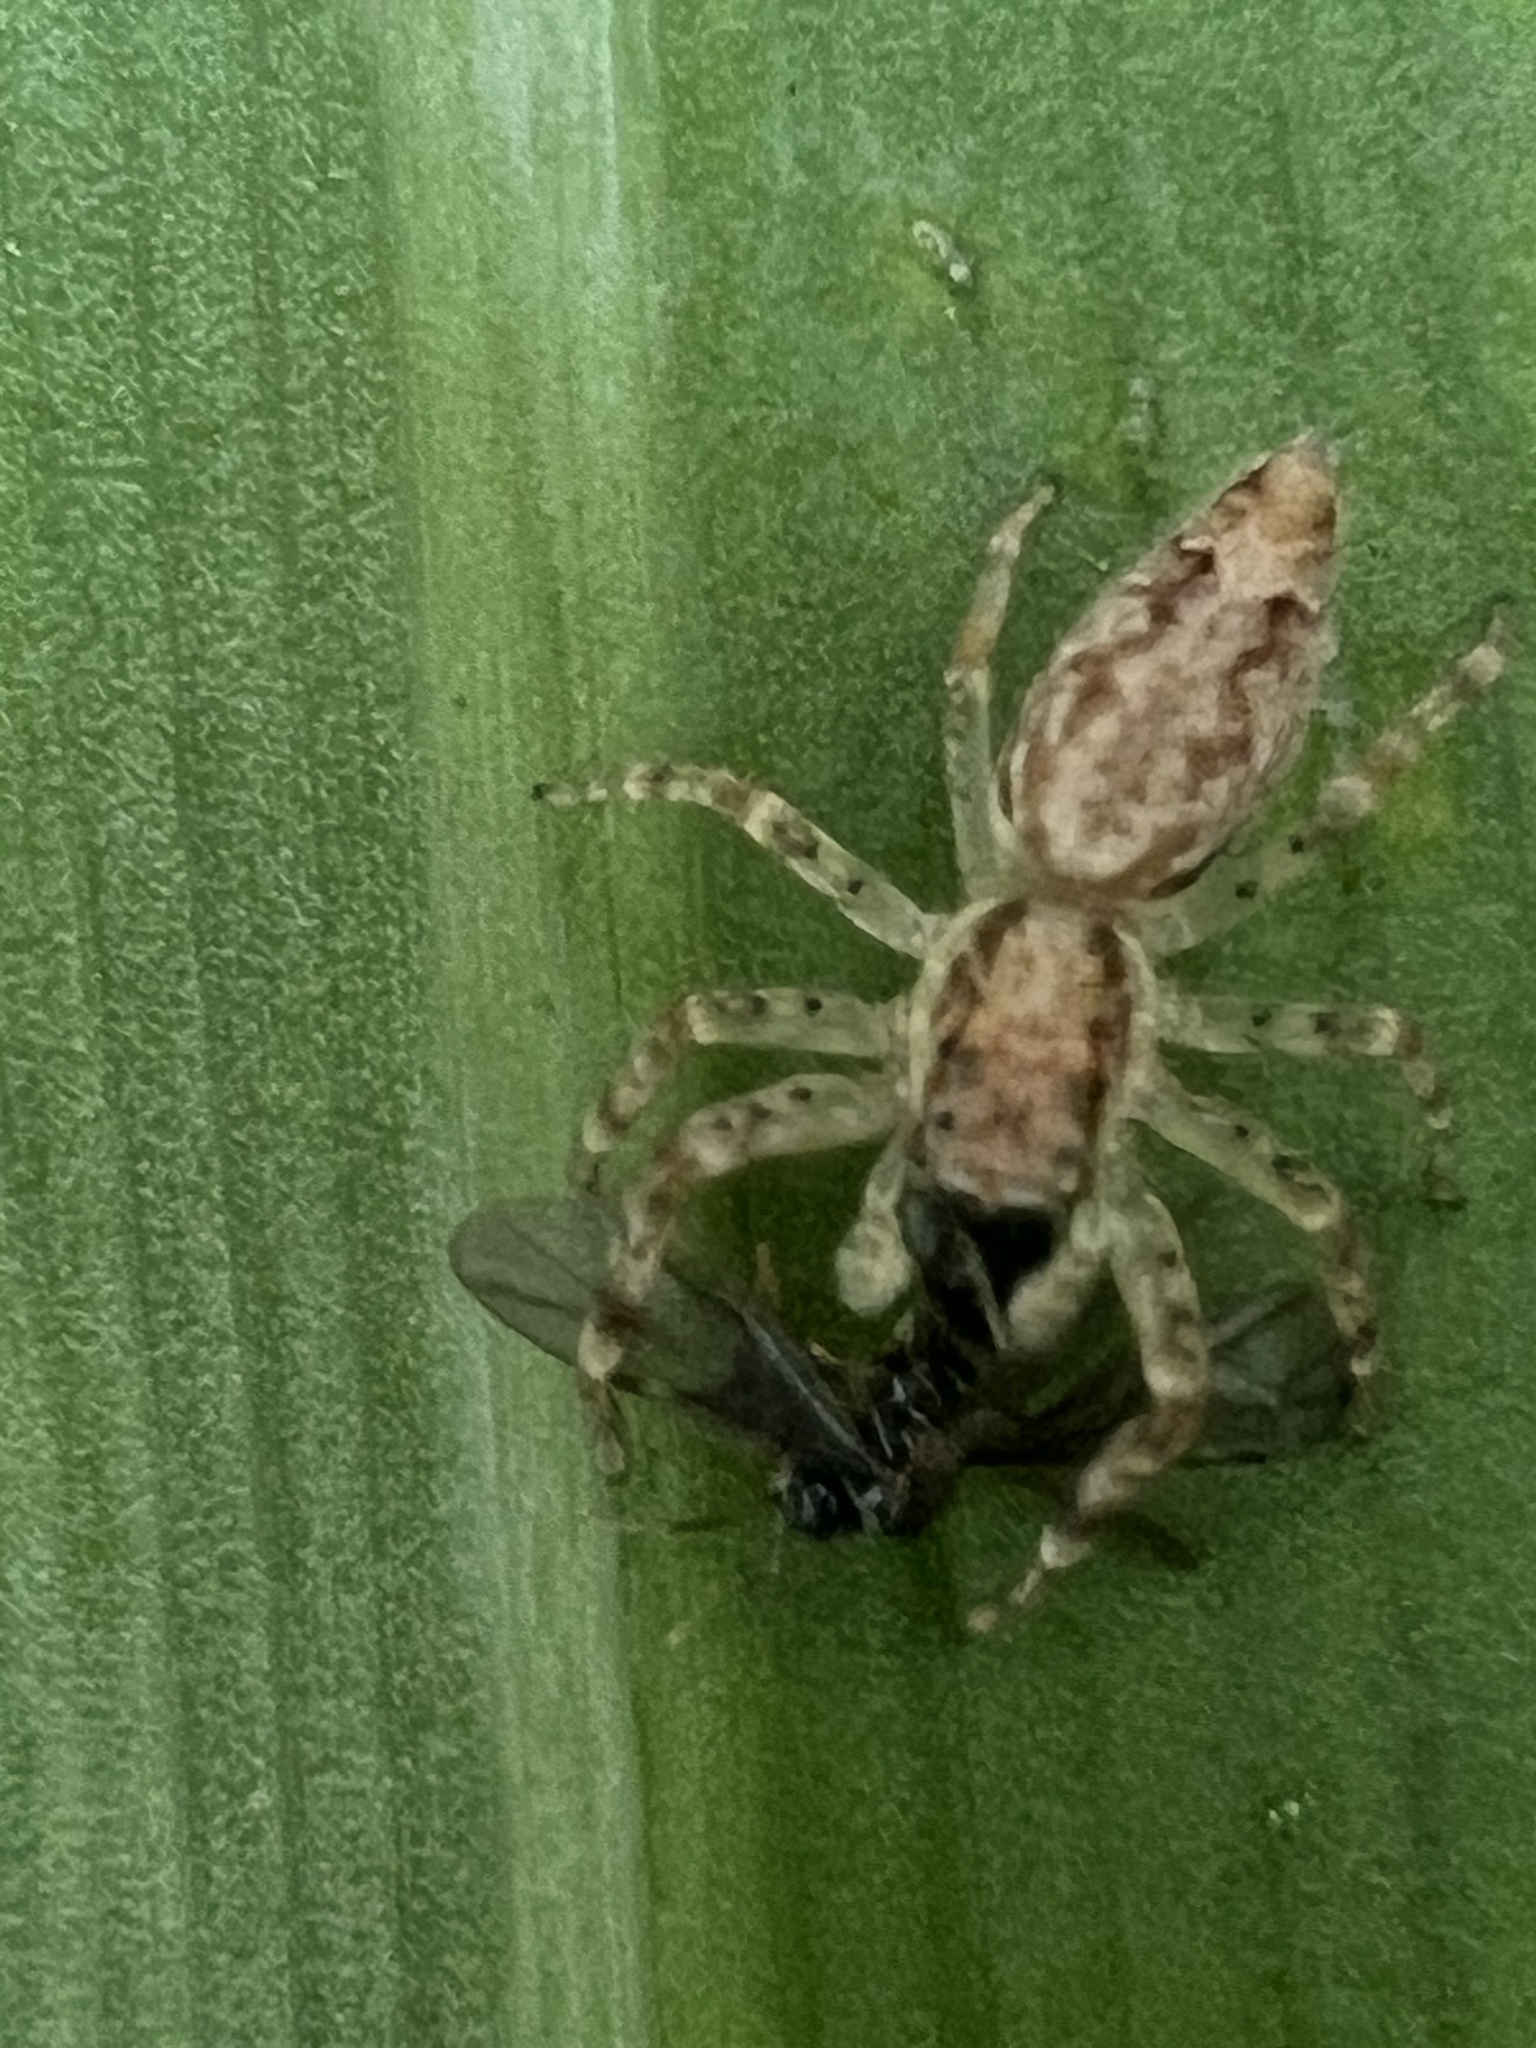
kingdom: Animalia
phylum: Arthropoda
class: Arachnida
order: Araneae
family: Salticidae
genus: Helpis
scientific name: Helpis minitabunda
